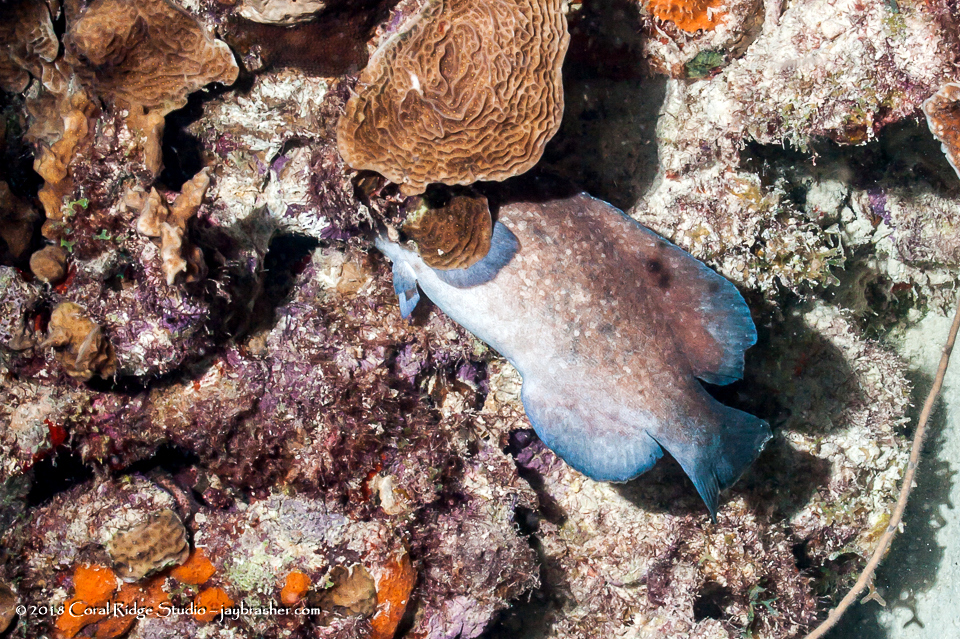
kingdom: Animalia
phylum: Chordata
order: Perciformes
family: Serranidae
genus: Rypticus
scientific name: Rypticus saponaceus
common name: Soapfish
